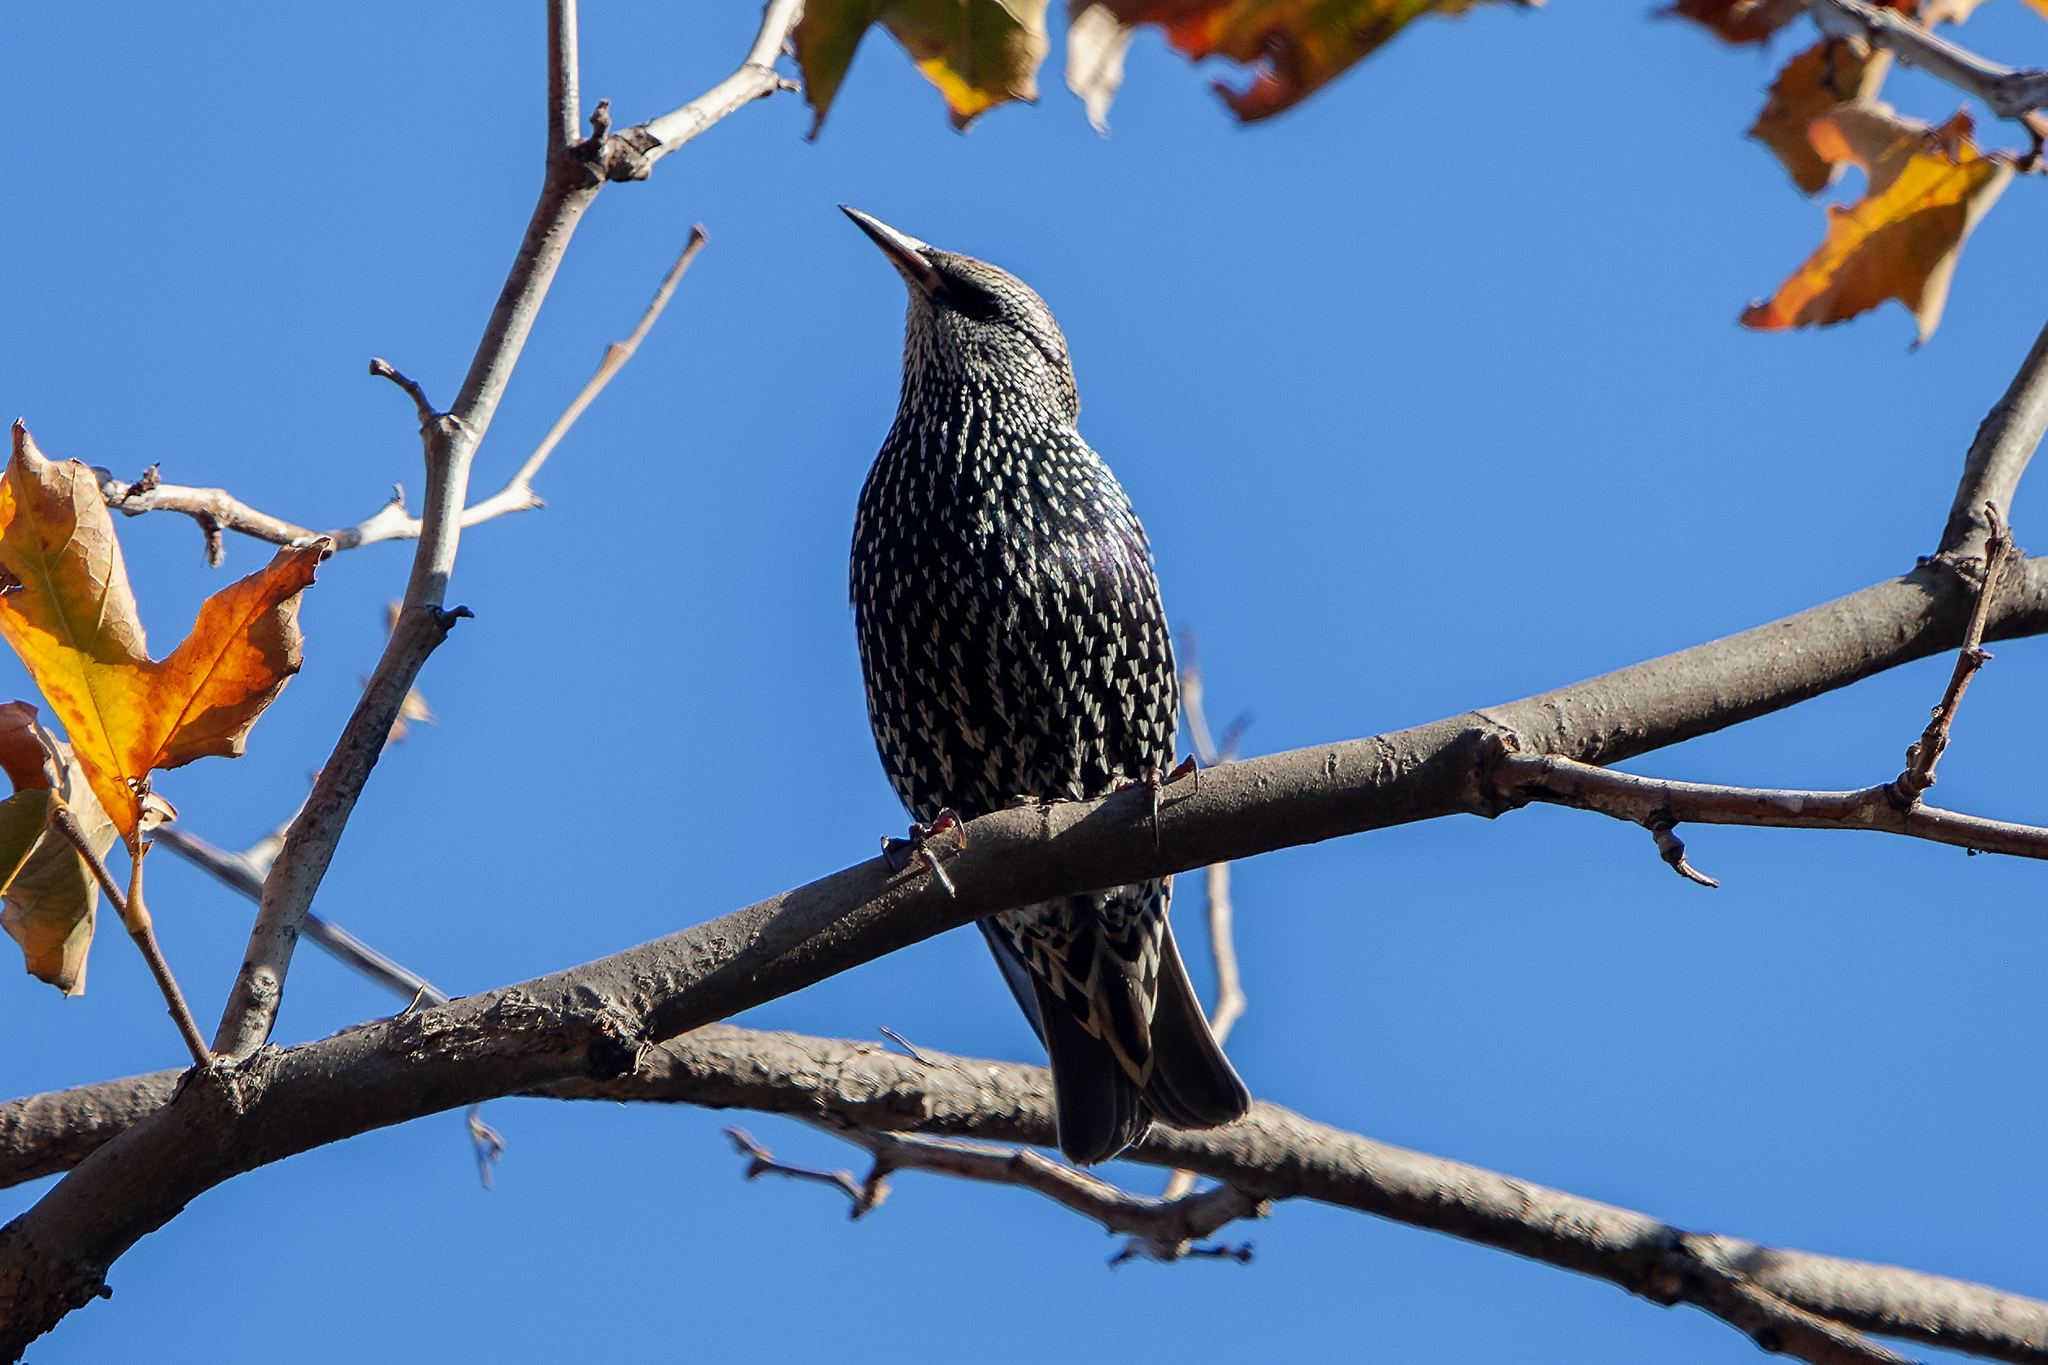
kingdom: Animalia
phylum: Chordata
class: Aves
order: Passeriformes
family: Sturnidae
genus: Sturnus
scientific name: Sturnus vulgaris
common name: Common starling
